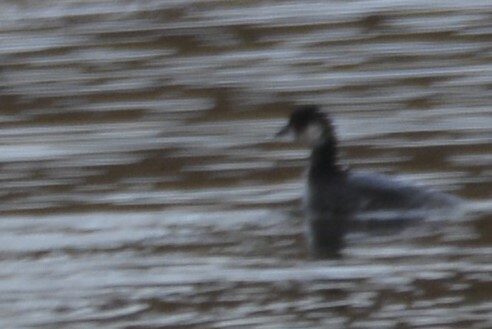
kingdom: Animalia
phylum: Chordata
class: Aves
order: Podicipediformes
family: Podicipedidae
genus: Podiceps
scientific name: Podiceps nigricollis
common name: Black-necked grebe
